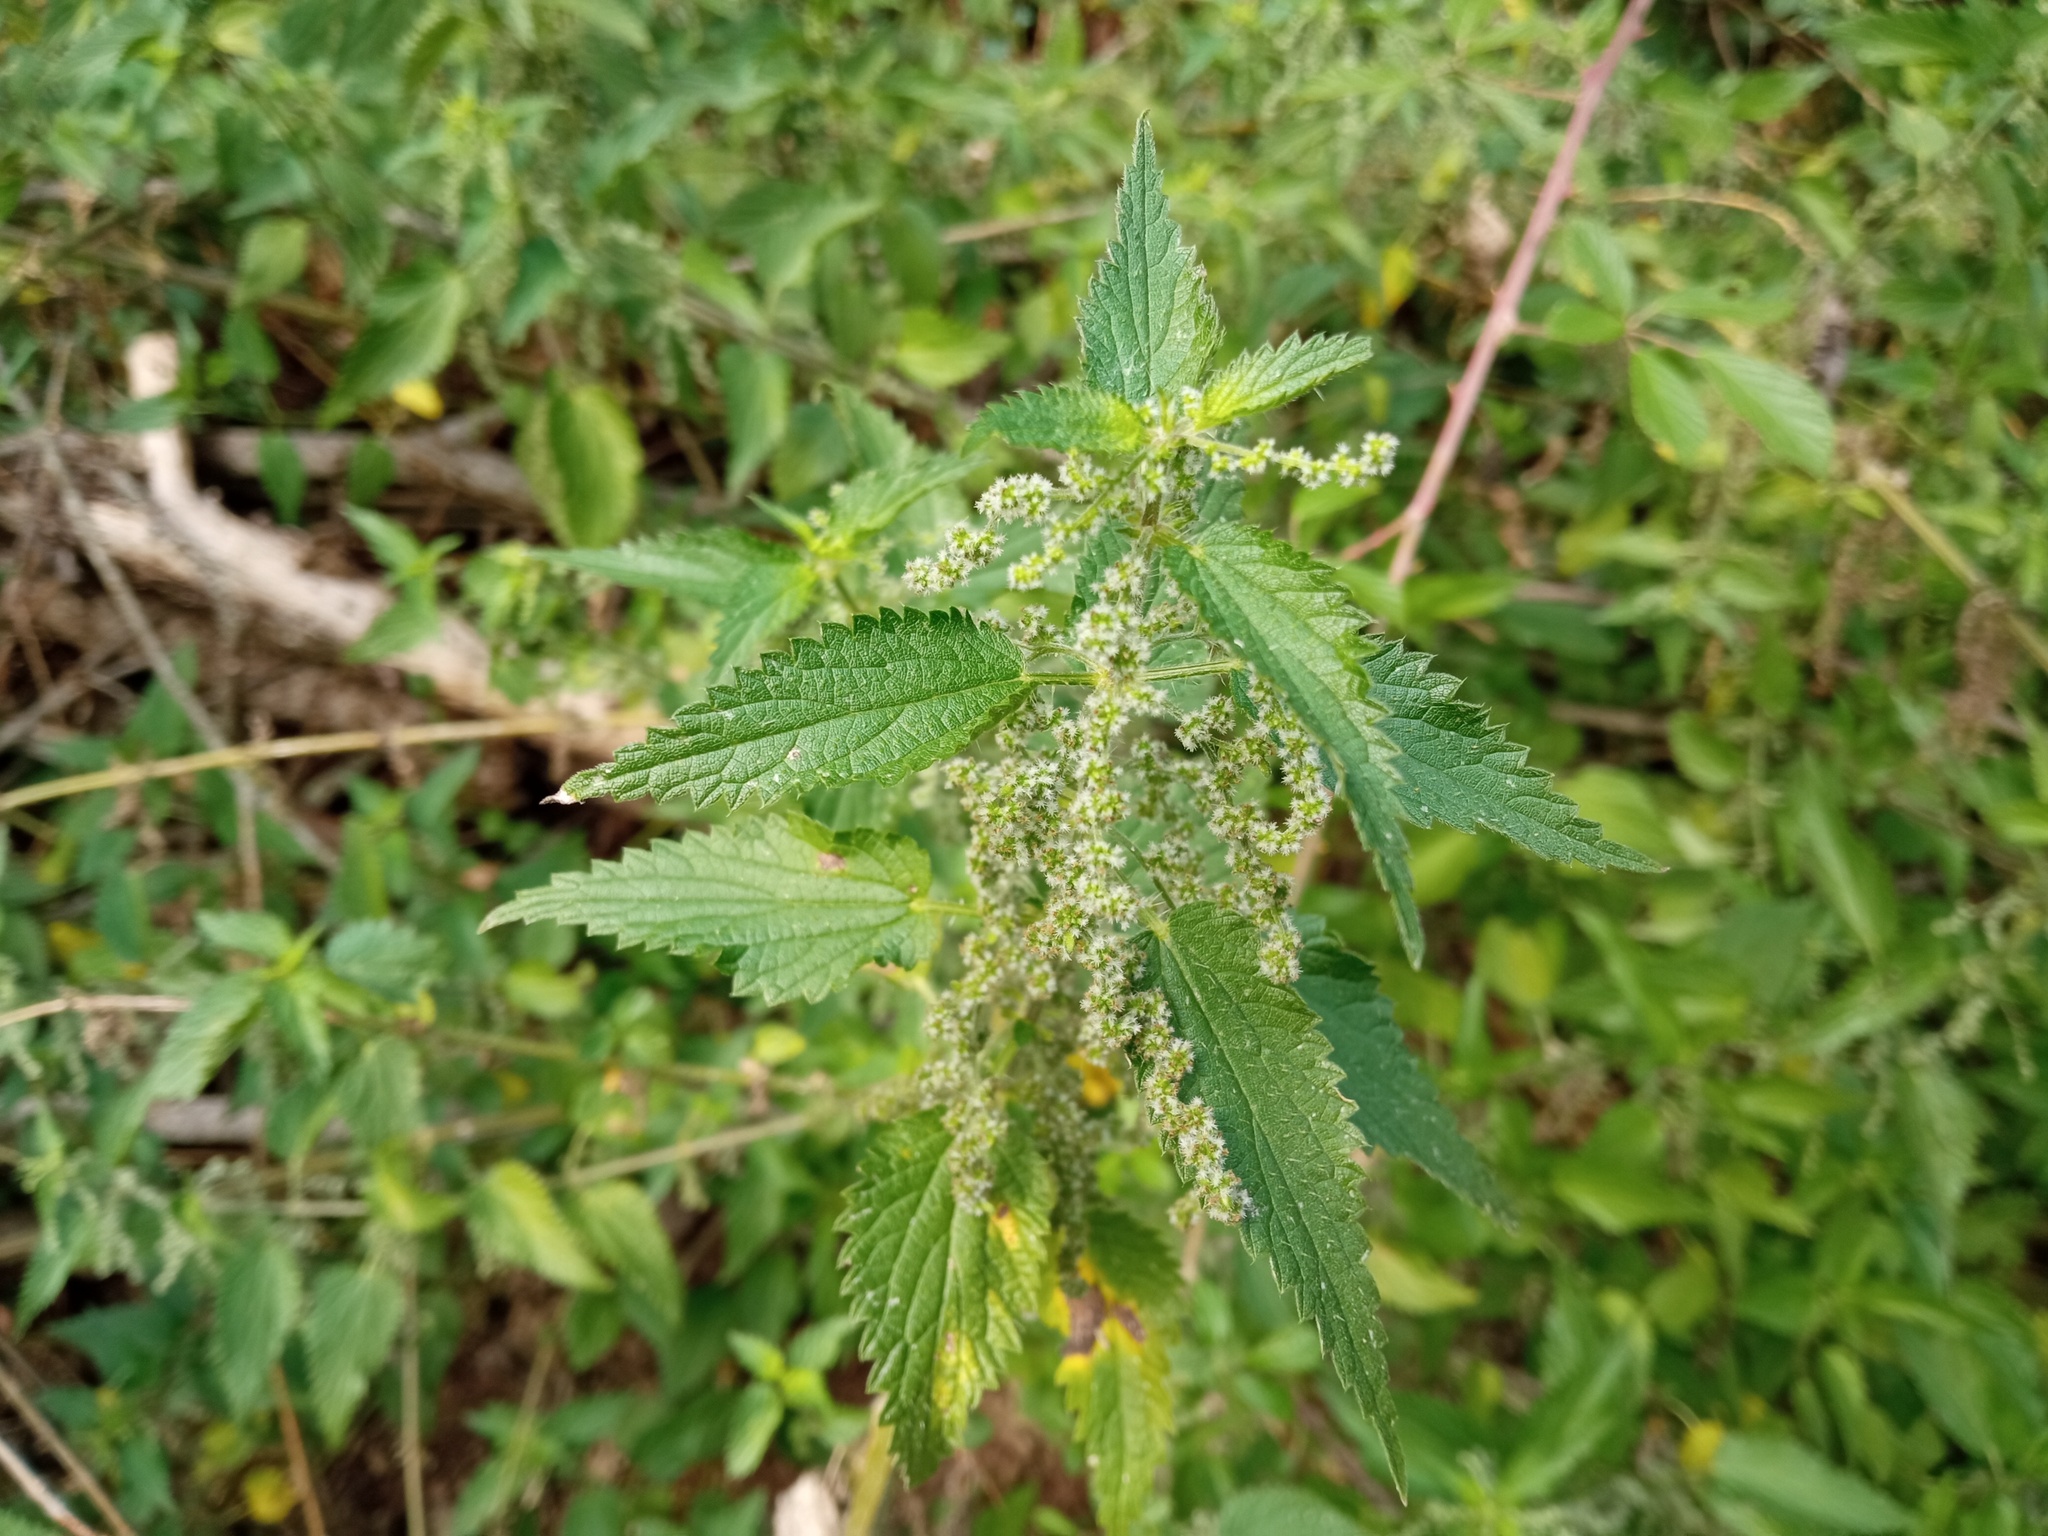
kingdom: Plantae
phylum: Tracheophyta
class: Magnoliopsida
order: Rosales
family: Urticaceae
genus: Urtica
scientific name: Urtica dioica
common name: Common nettle
